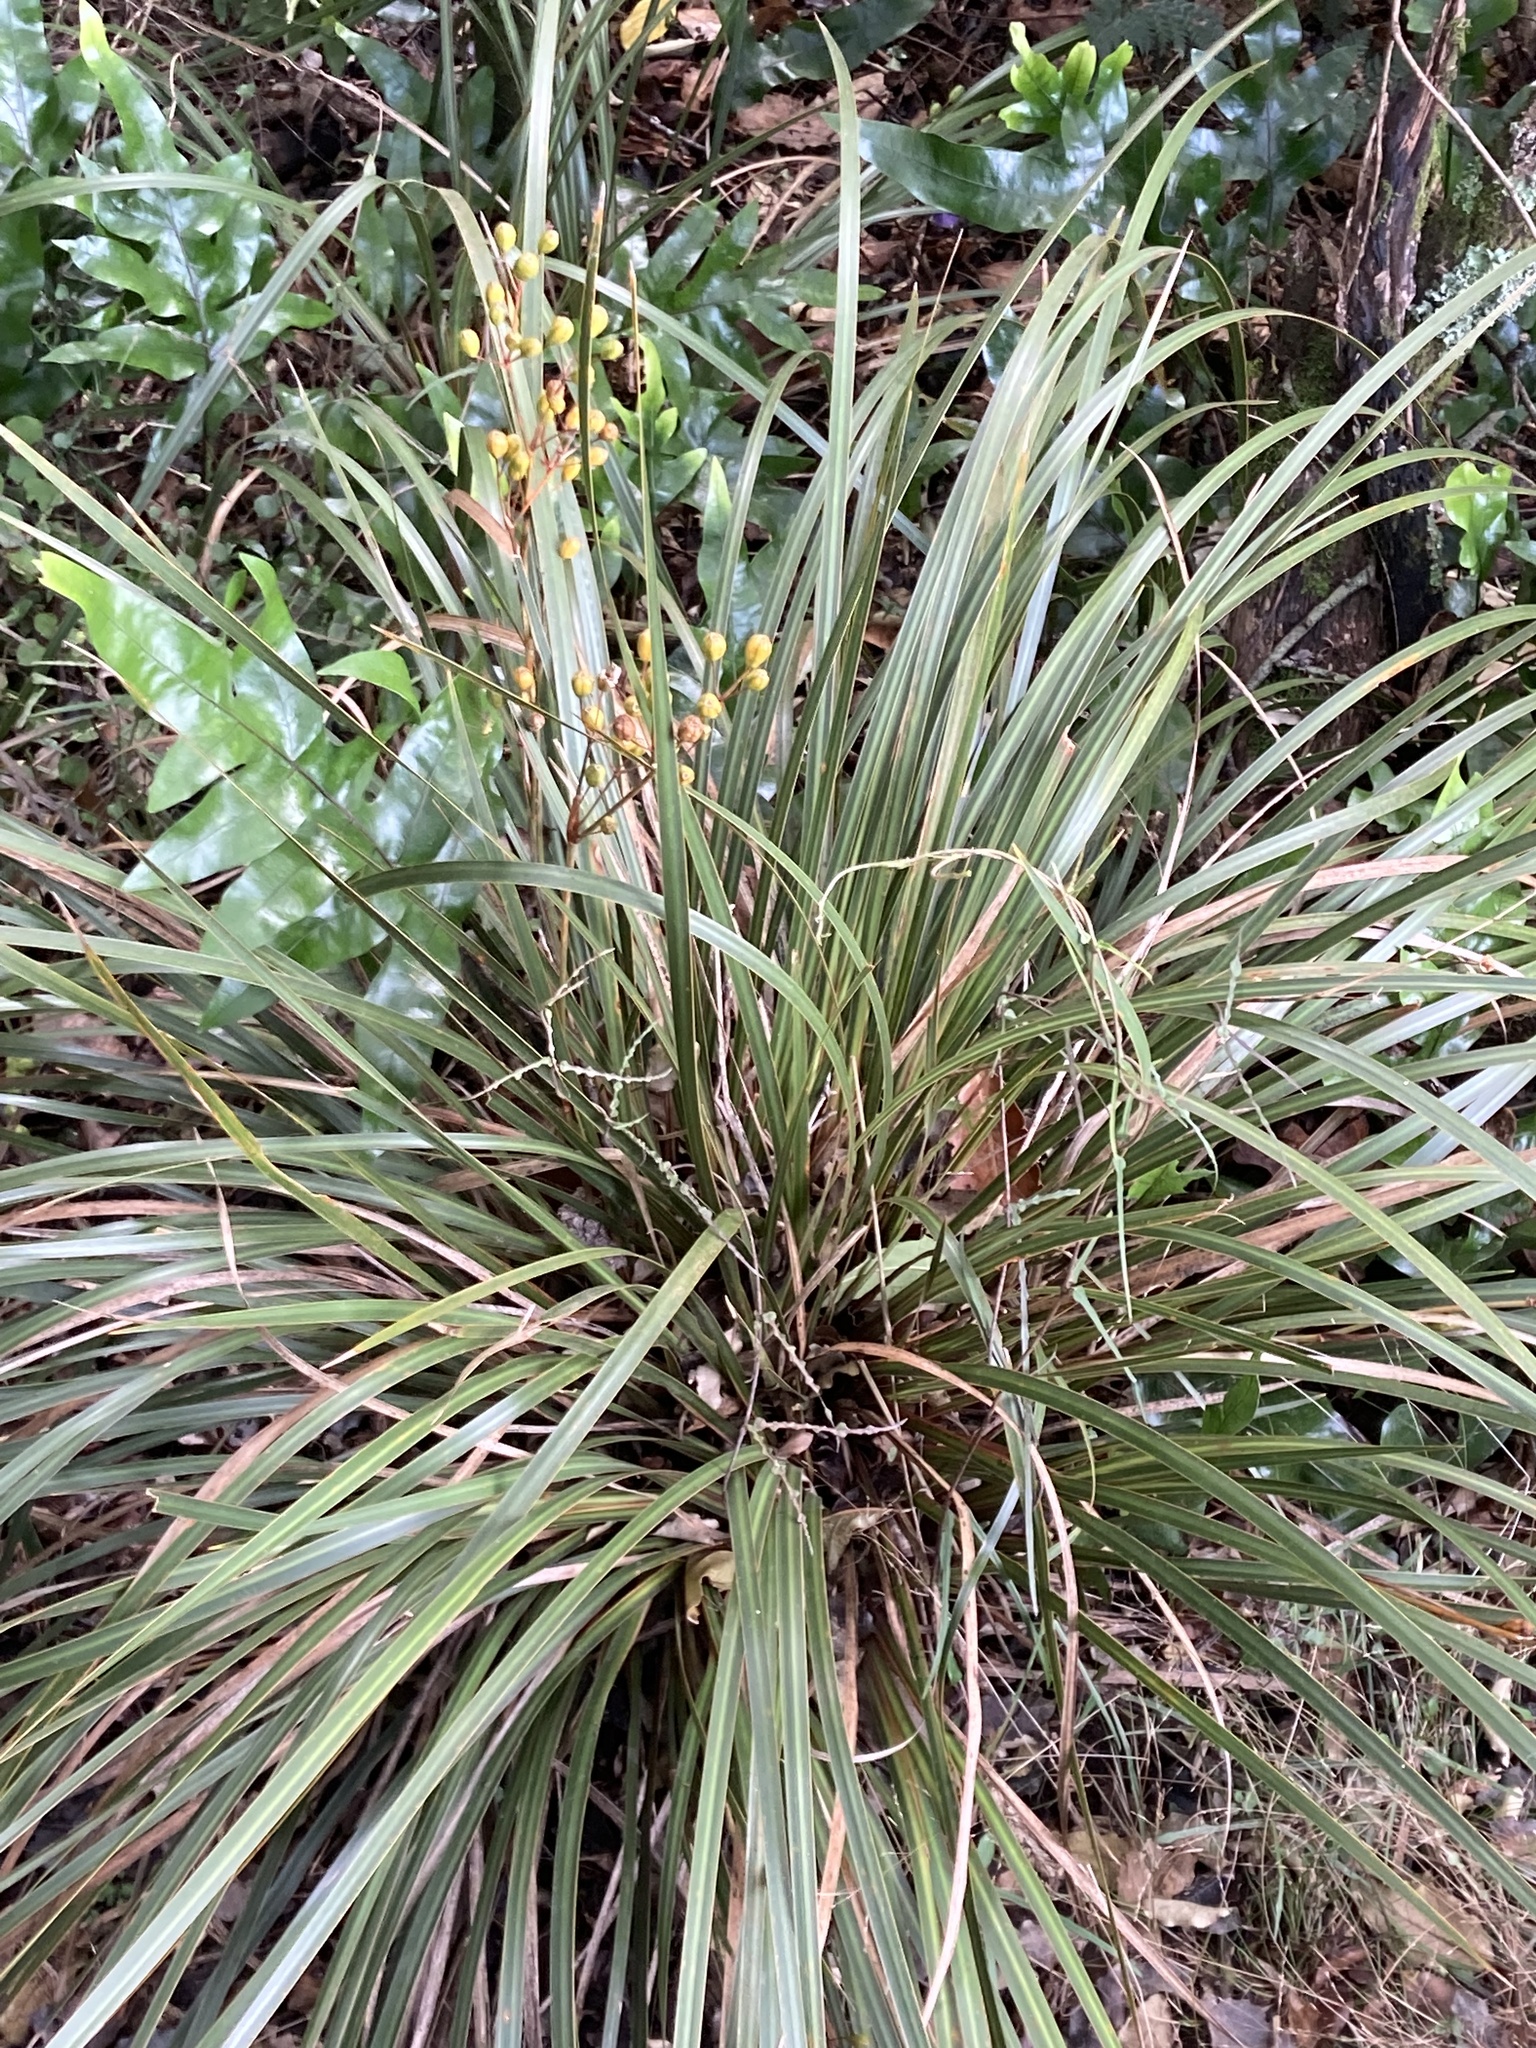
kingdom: Plantae
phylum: Tracheophyta
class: Liliopsida
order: Asparagales
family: Iridaceae
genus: Libertia
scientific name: Libertia ixioides
